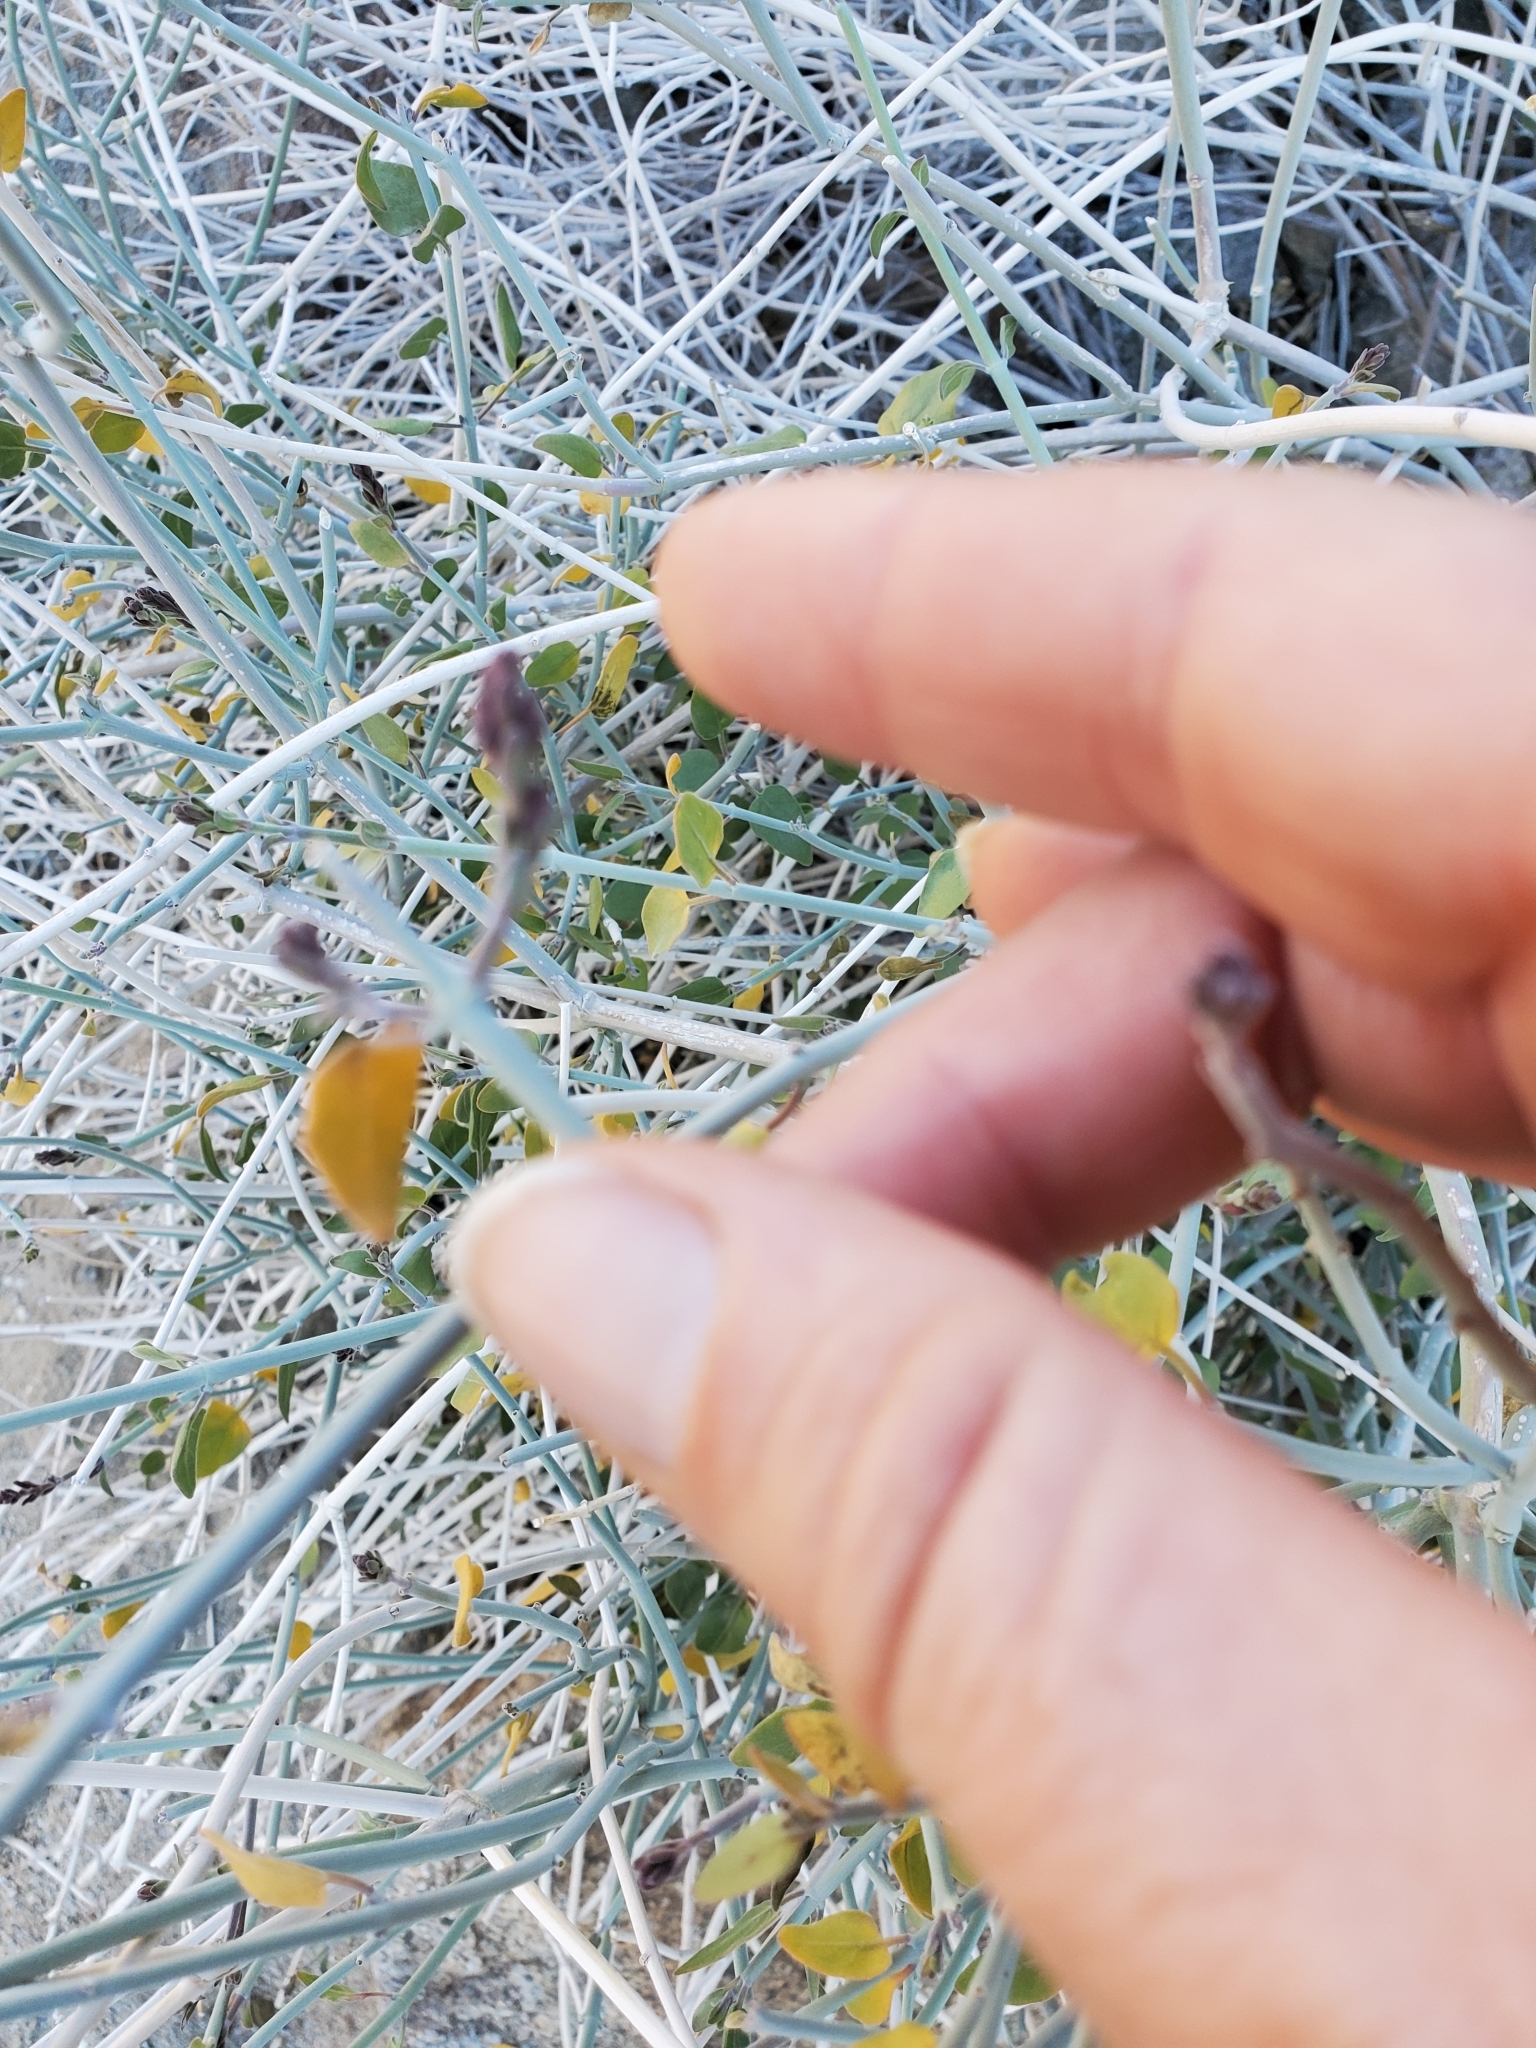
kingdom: Plantae
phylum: Tracheophyta
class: Magnoliopsida
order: Lamiales
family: Acanthaceae
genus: Justicia
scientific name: Justicia californica
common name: Chuparosa-honeysuckle
